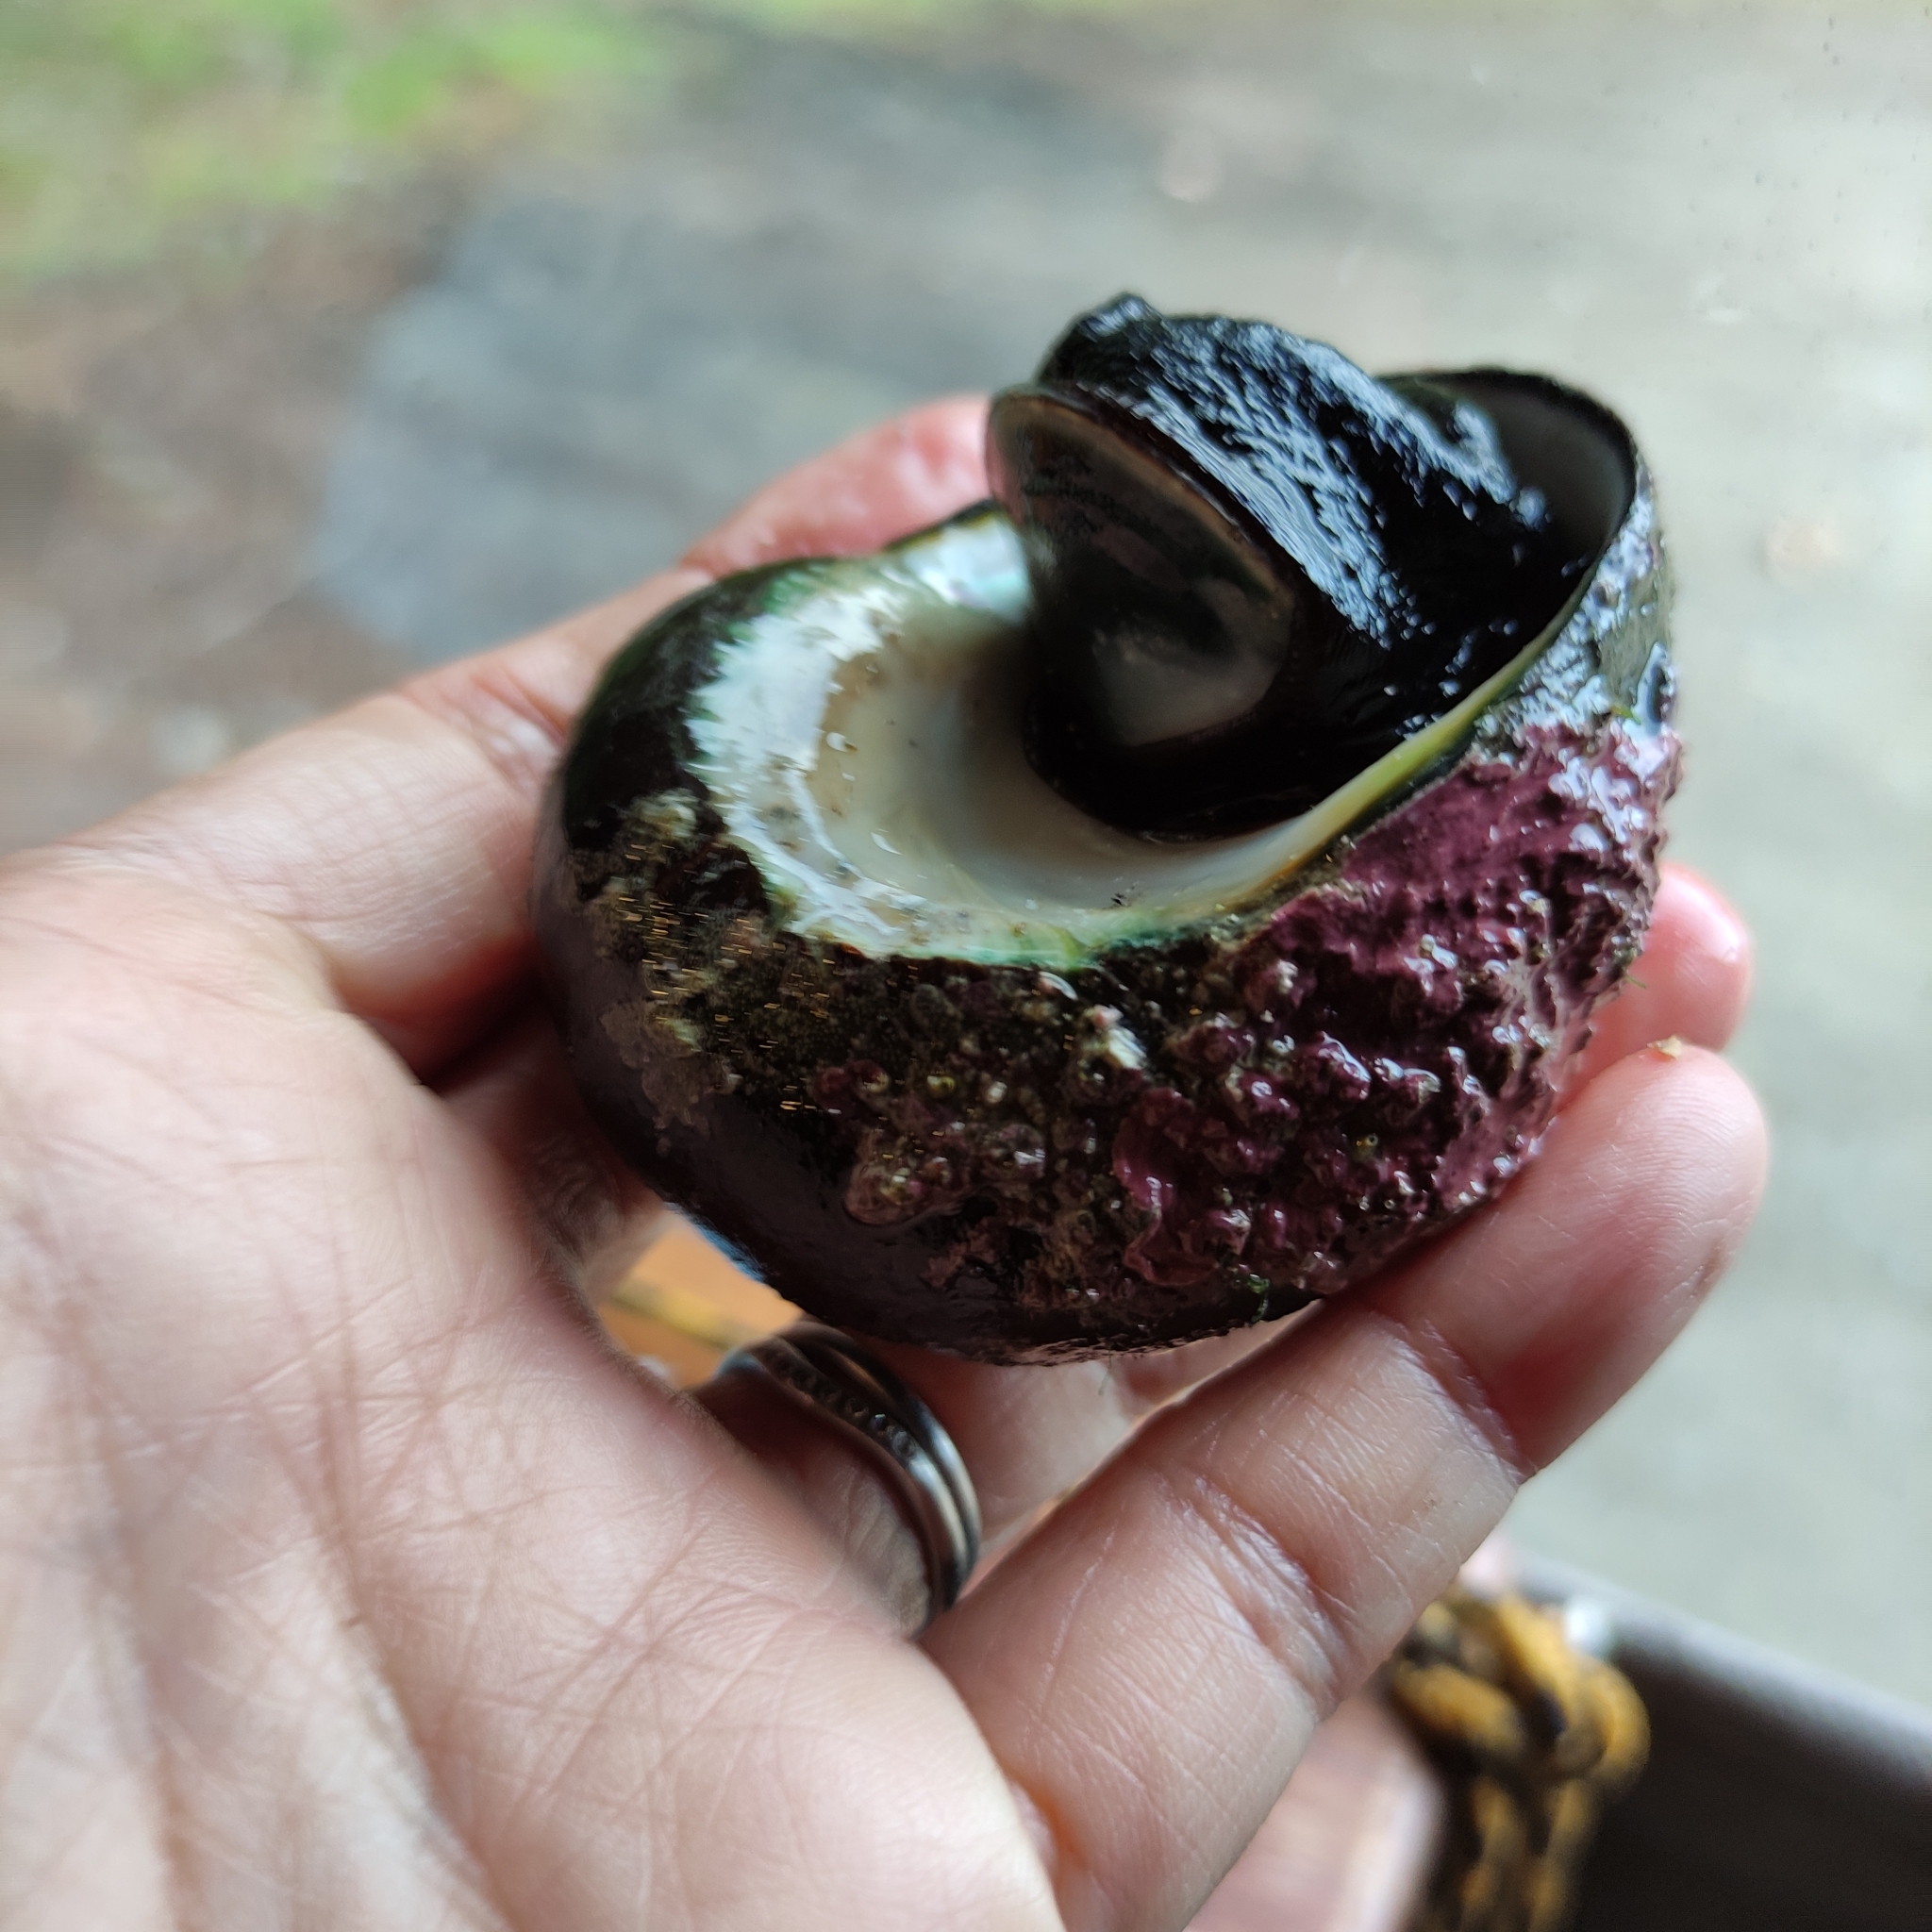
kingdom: Animalia
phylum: Mollusca
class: Gastropoda
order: Trochida
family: Turbinidae
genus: Lunella
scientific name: Lunella smaragda
